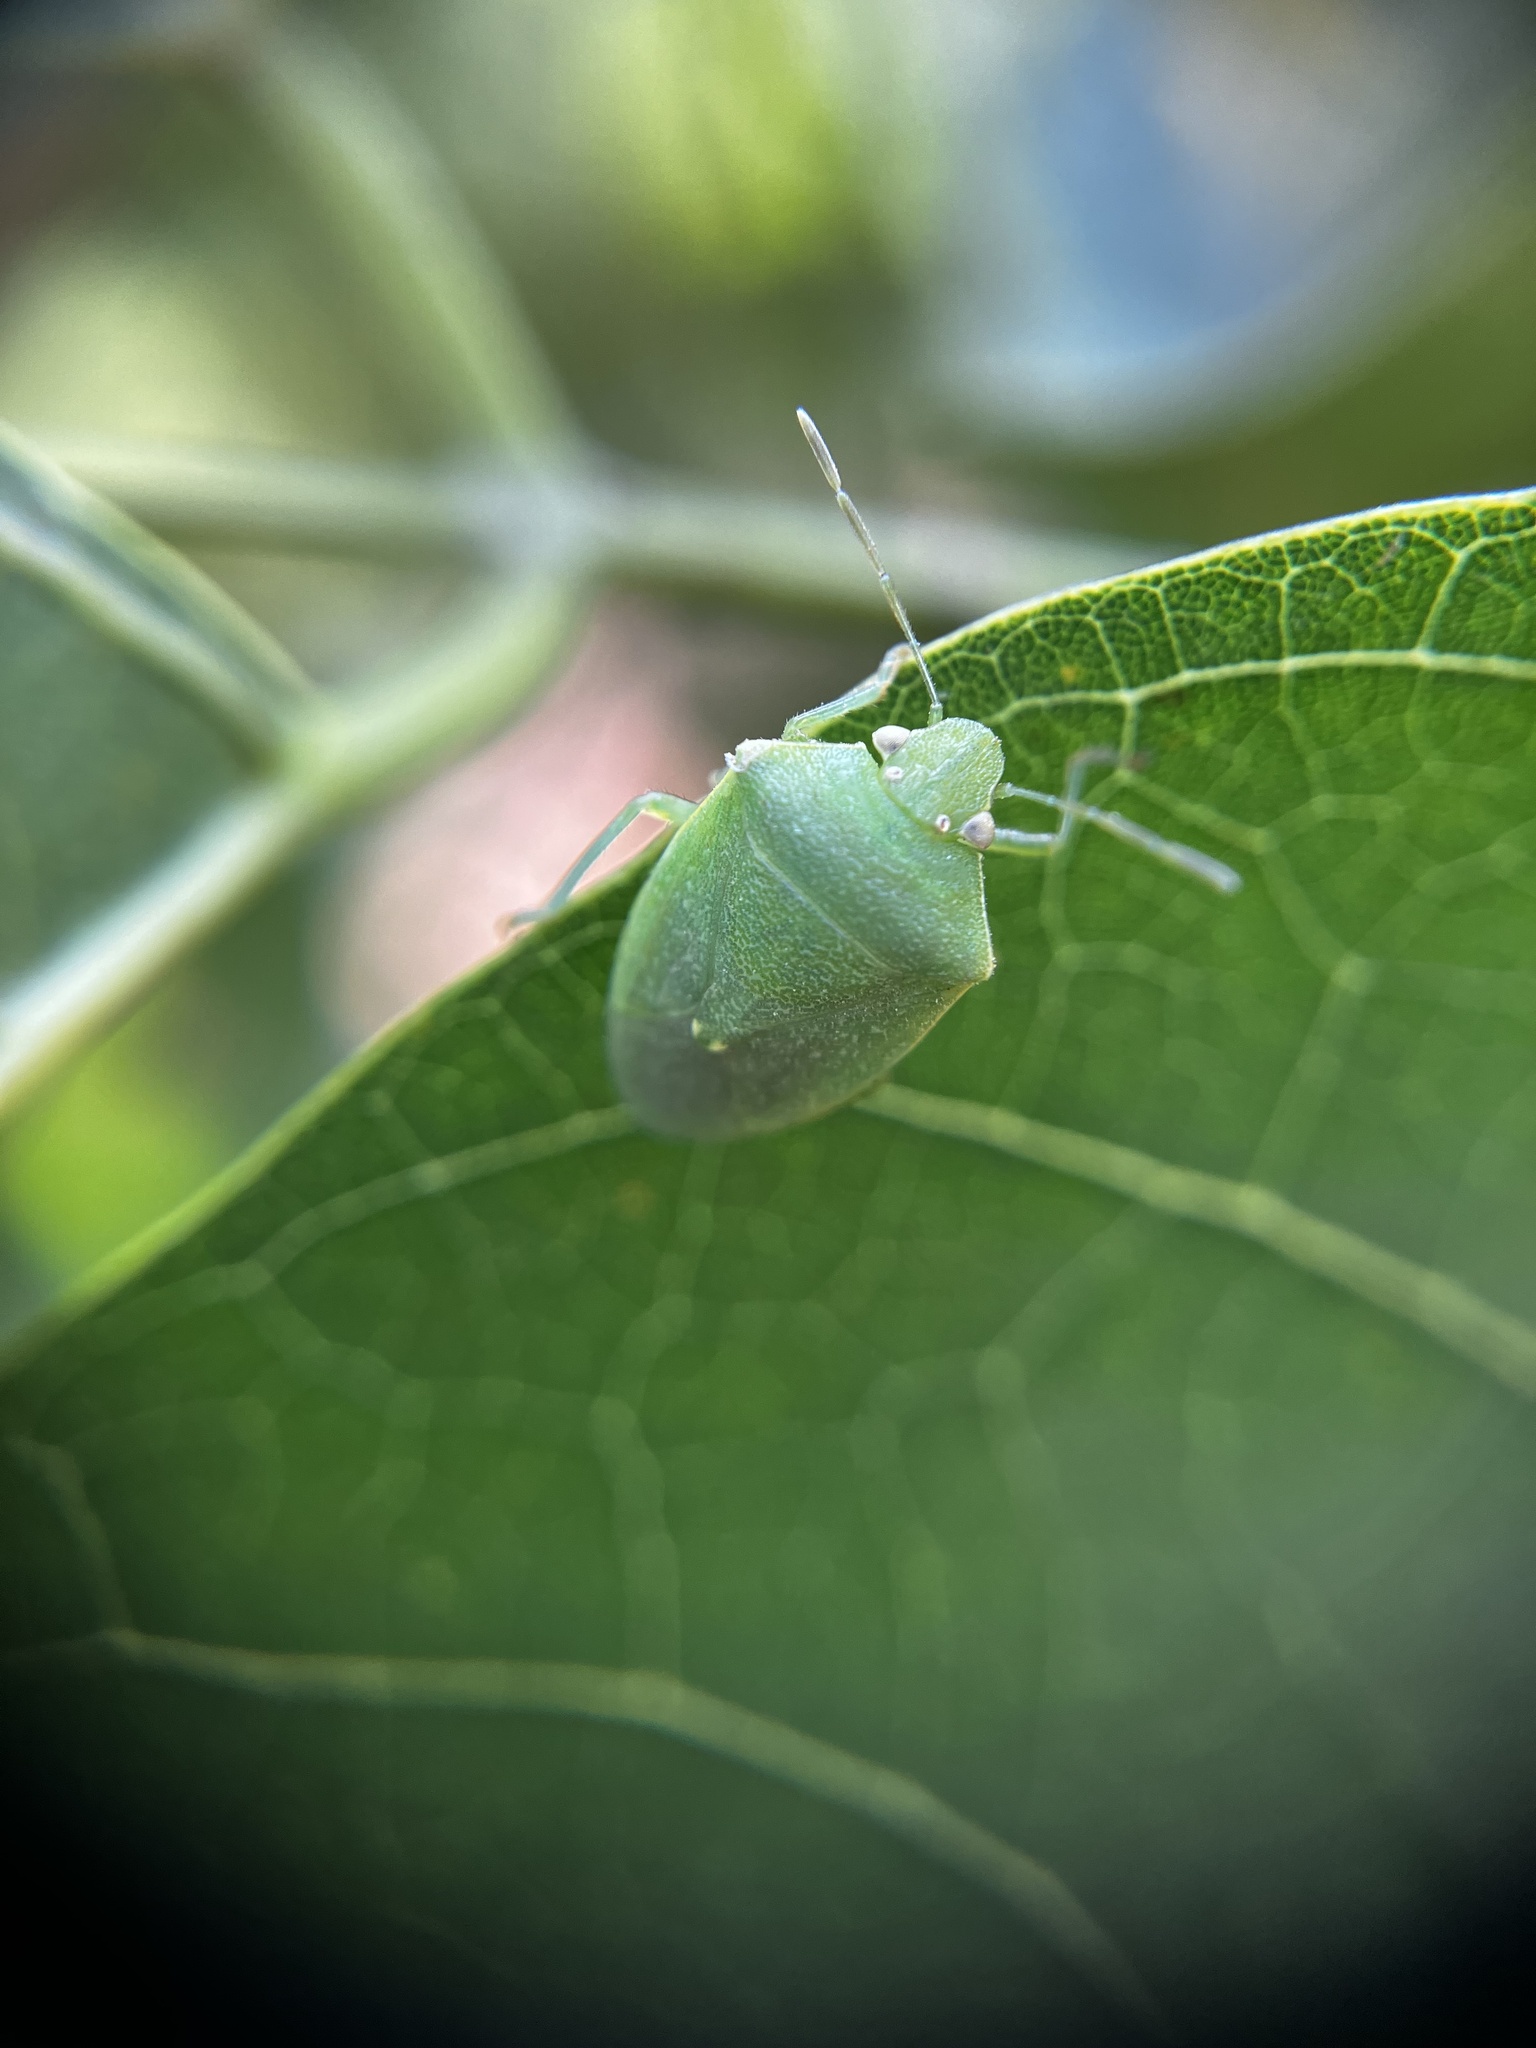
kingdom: Animalia
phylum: Arthropoda
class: Insecta
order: Hemiptera
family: Pentatomidae
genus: Acrosternum
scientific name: Acrosternum gramineum
